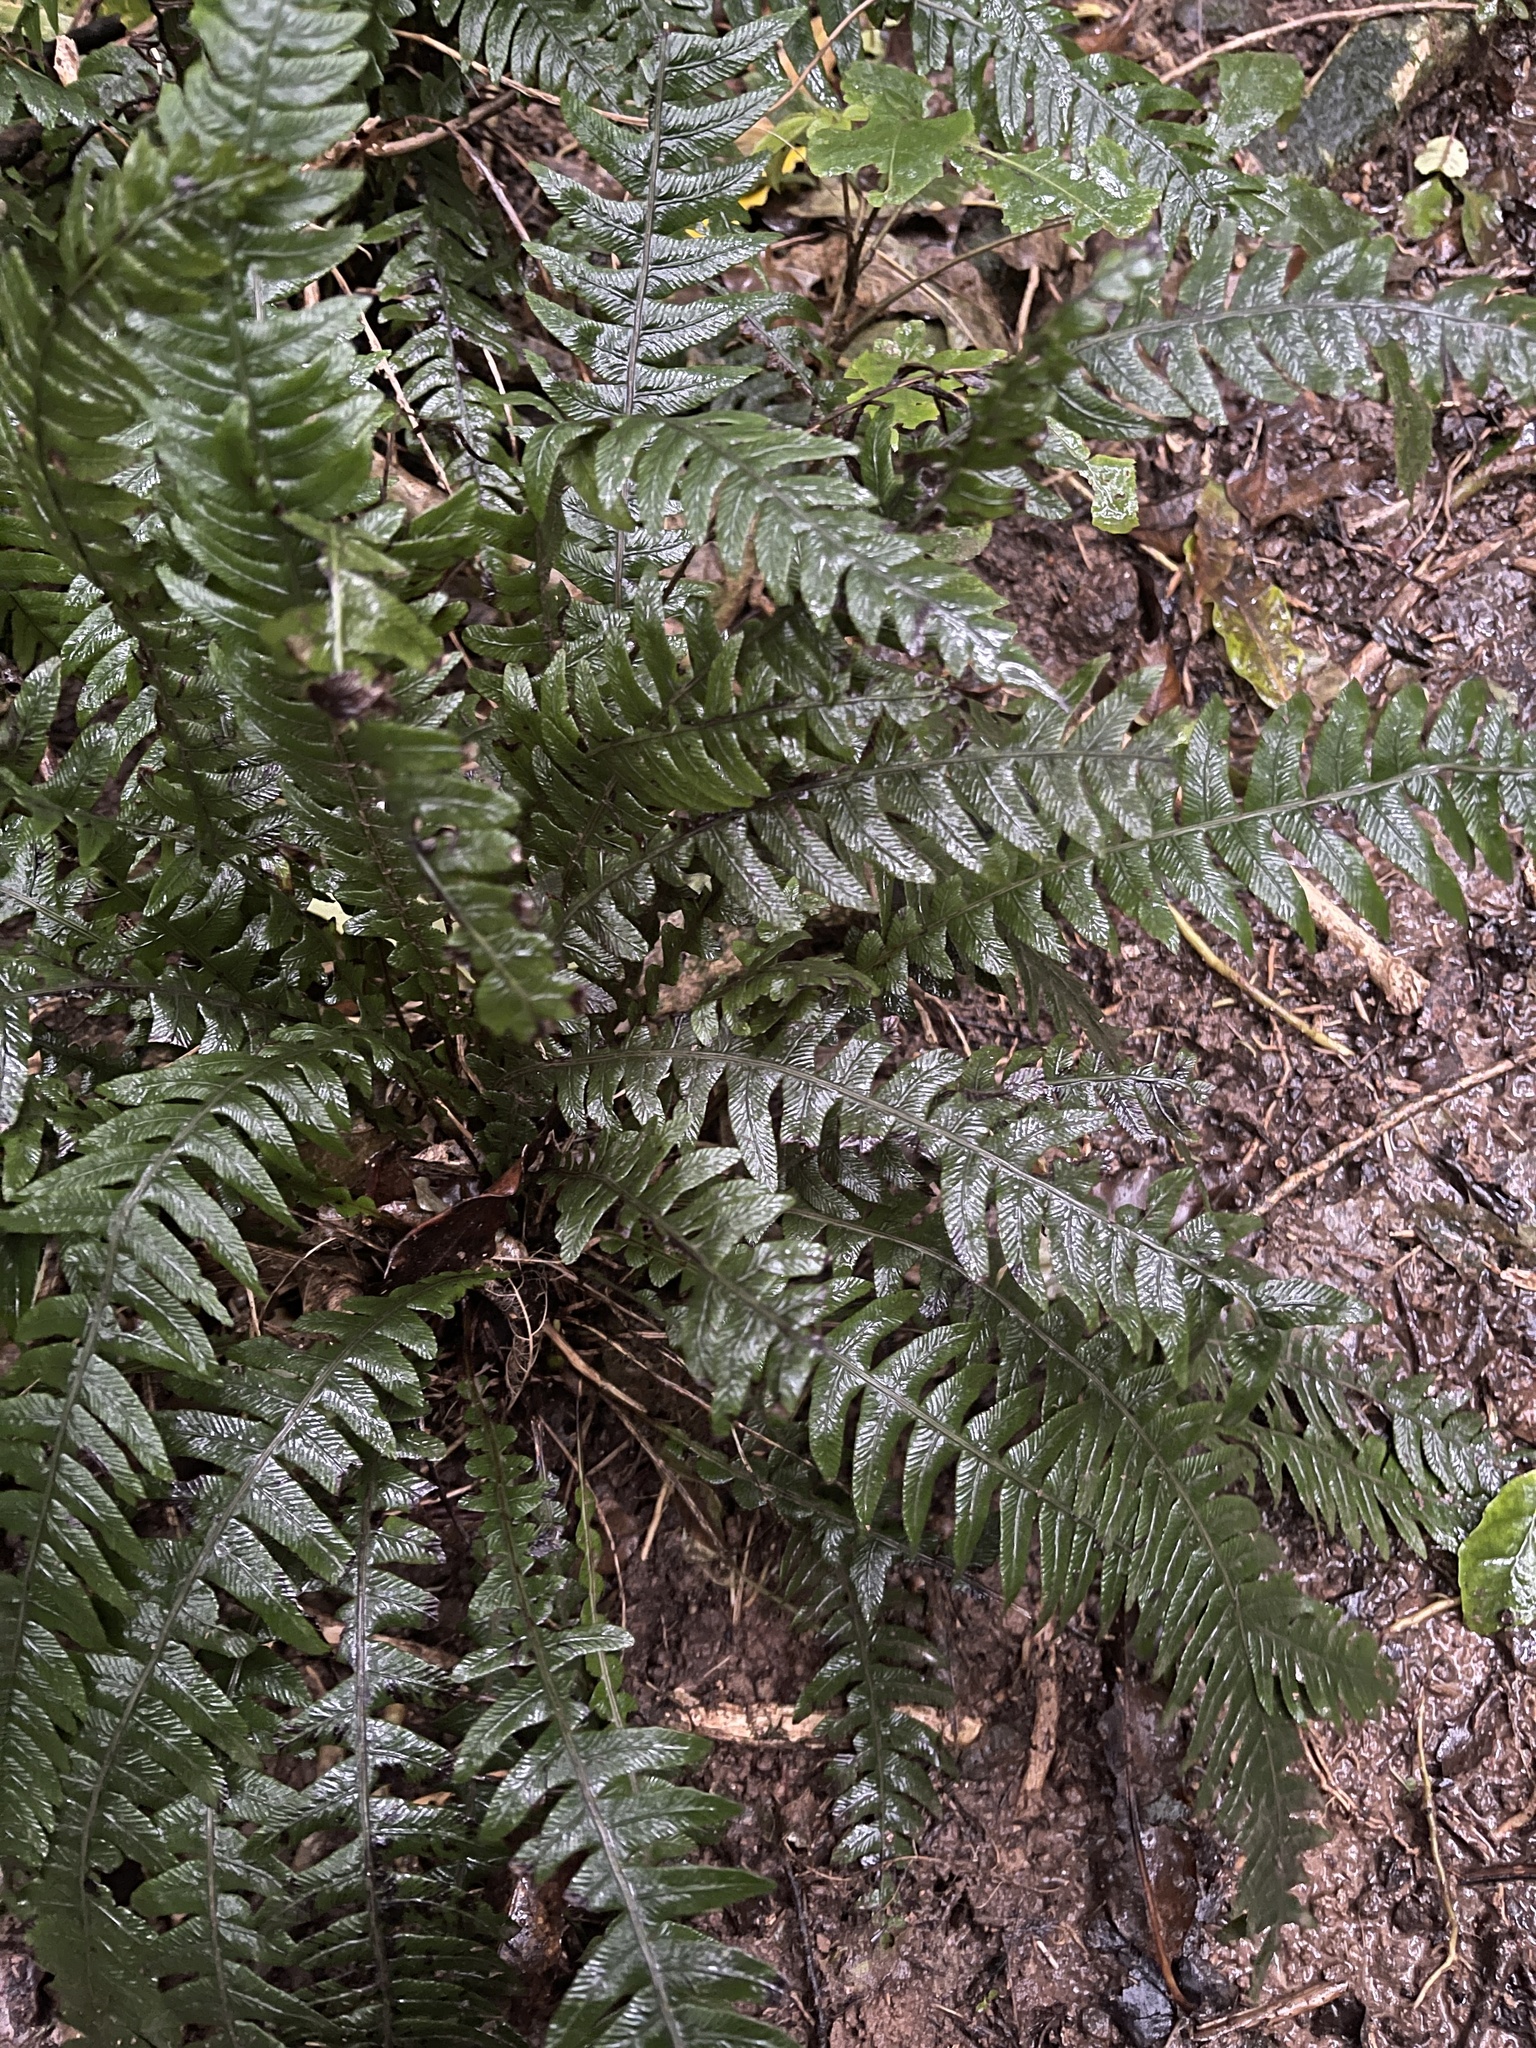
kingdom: Plantae
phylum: Tracheophyta
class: Polypodiopsida
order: Polypodiales
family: Blechnaceae
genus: Austroblechnum
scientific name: Austroblechnum lanceolatum
